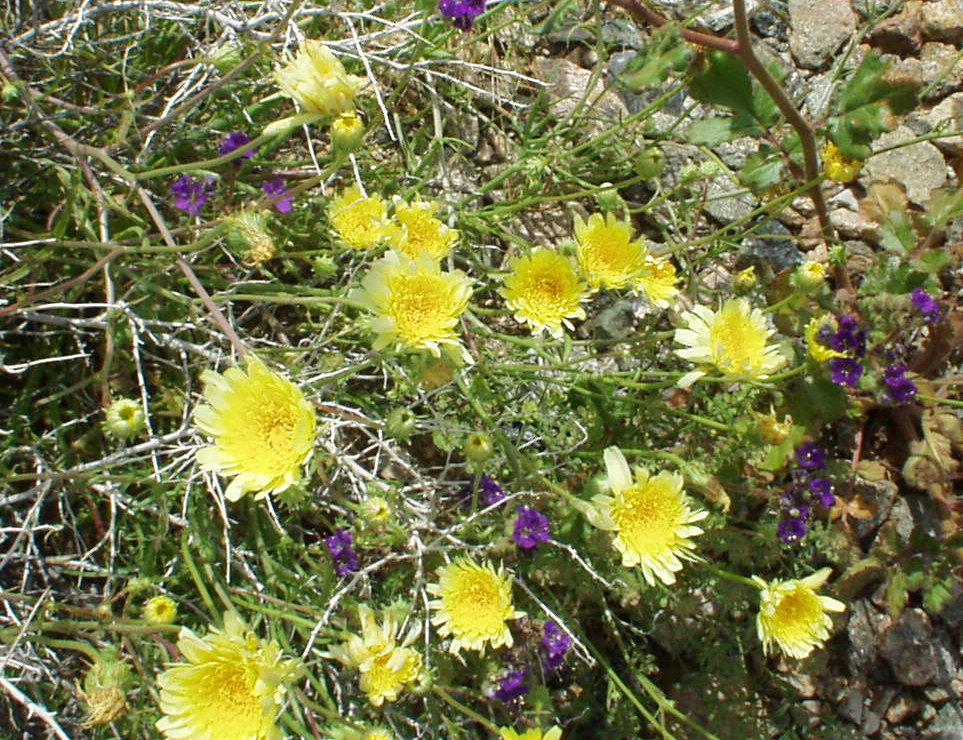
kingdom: Plantae
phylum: Tracheophyta
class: Magnoliopsida
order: Asterales
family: Asteraceae
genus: Malacothrix
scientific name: Malacothrix glabrata
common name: Smooth desert-dandelion
